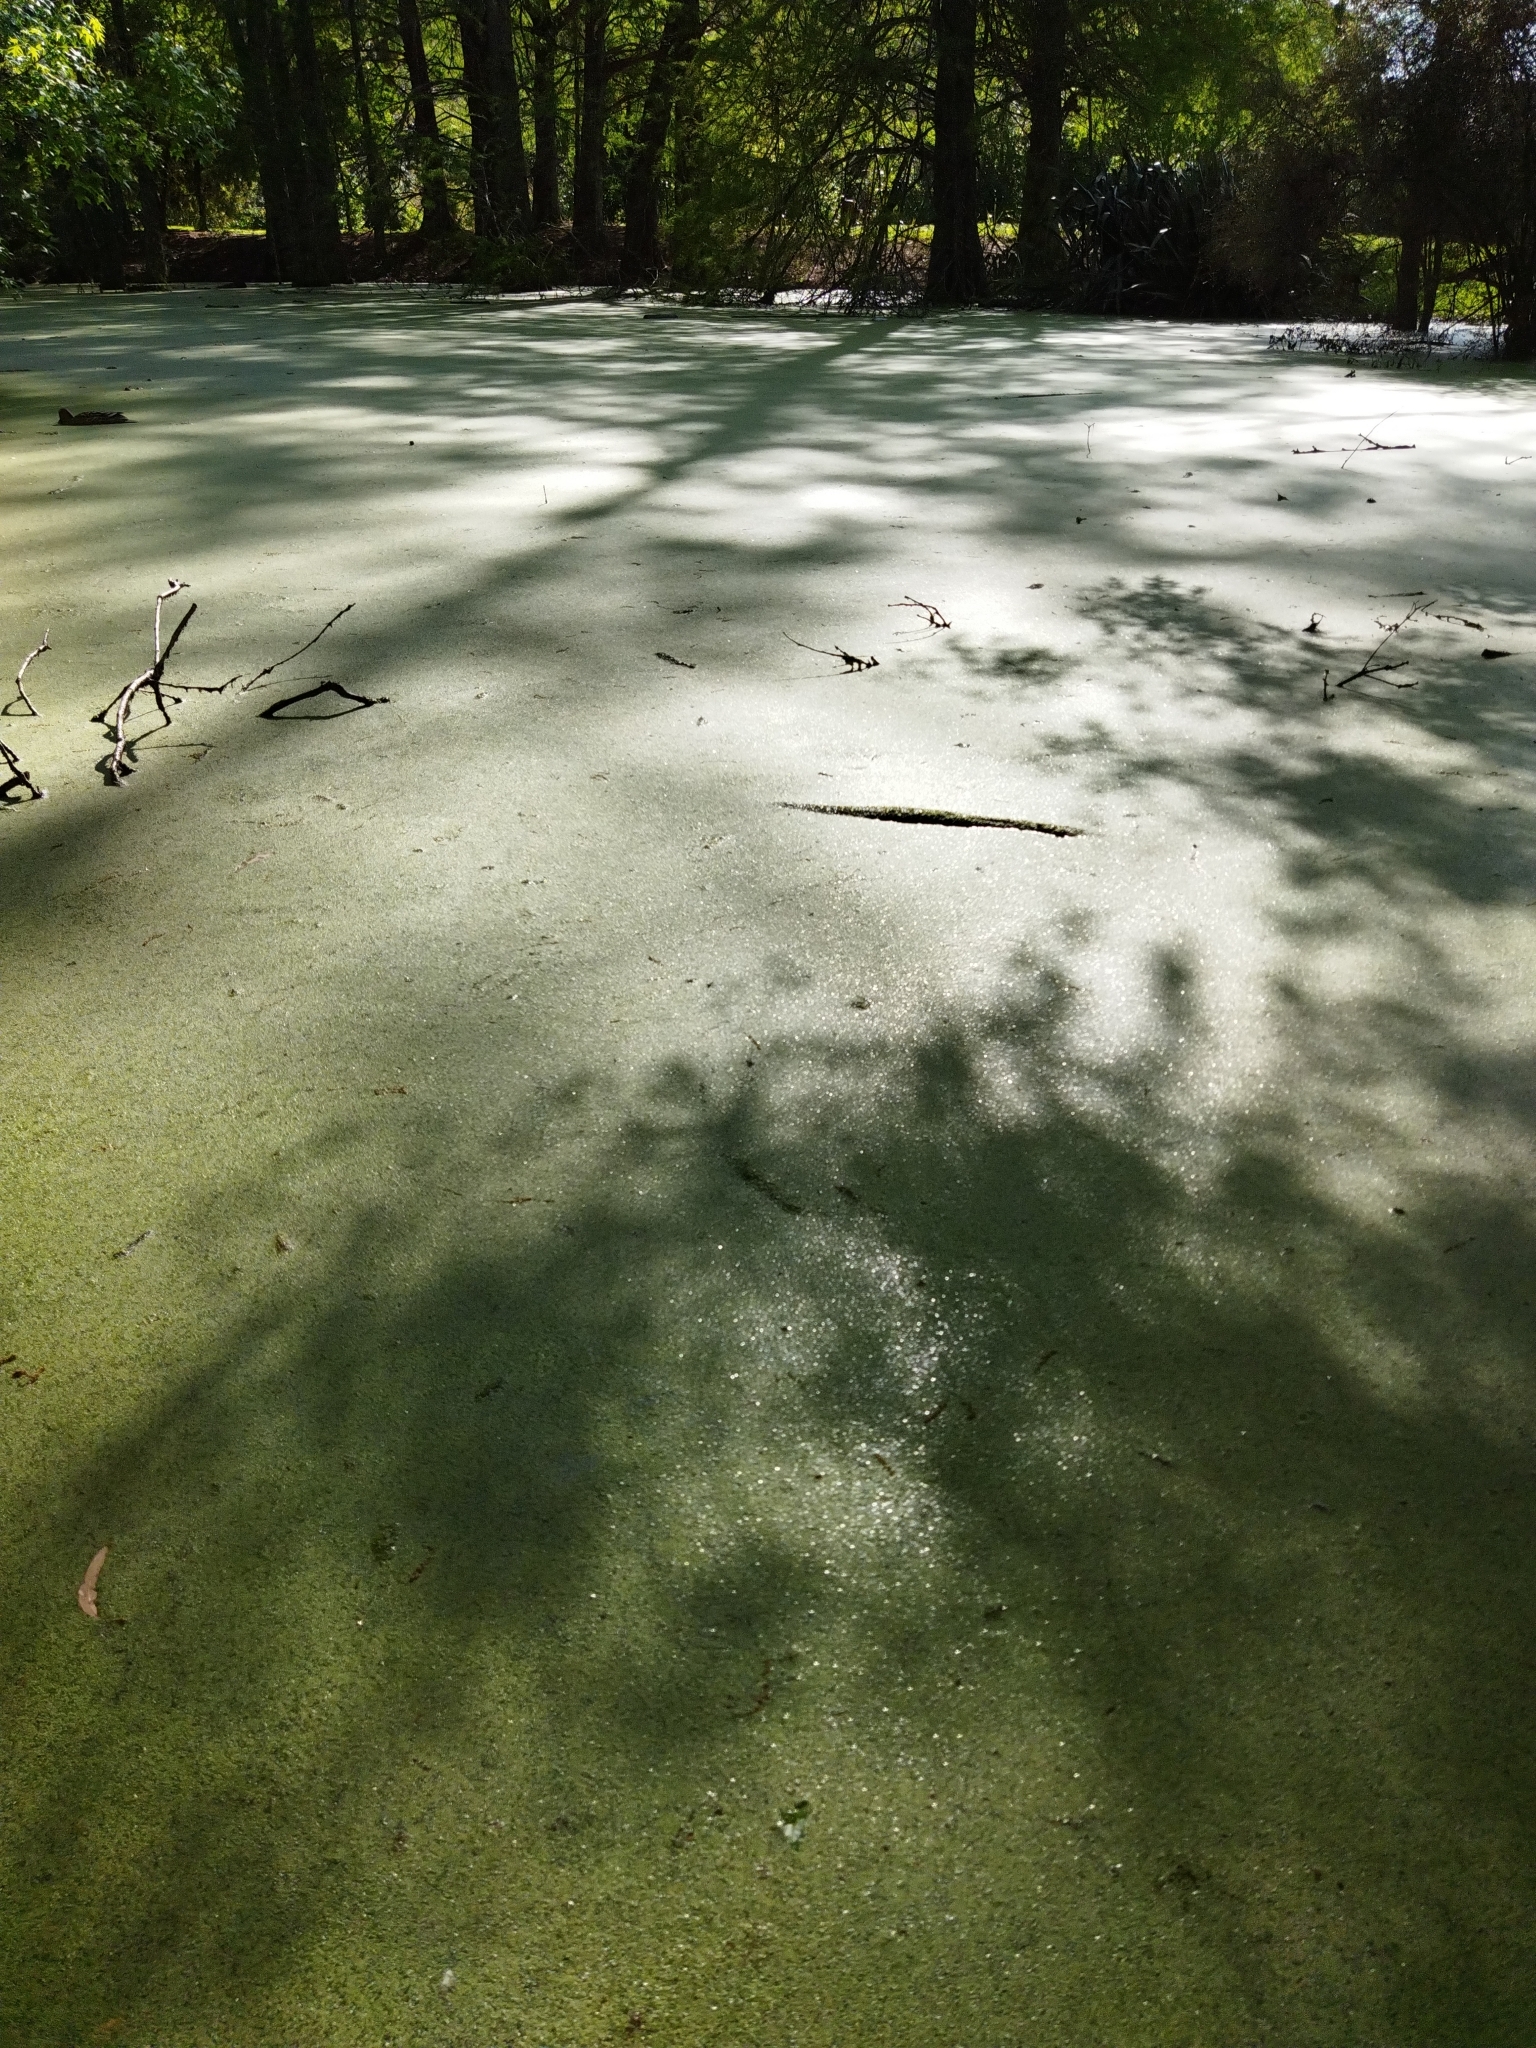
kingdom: Plantae
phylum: Tracheophyta
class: Liliopsida
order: Alismatales
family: Araceae
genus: Wolffia
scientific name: Wolffia australiana
